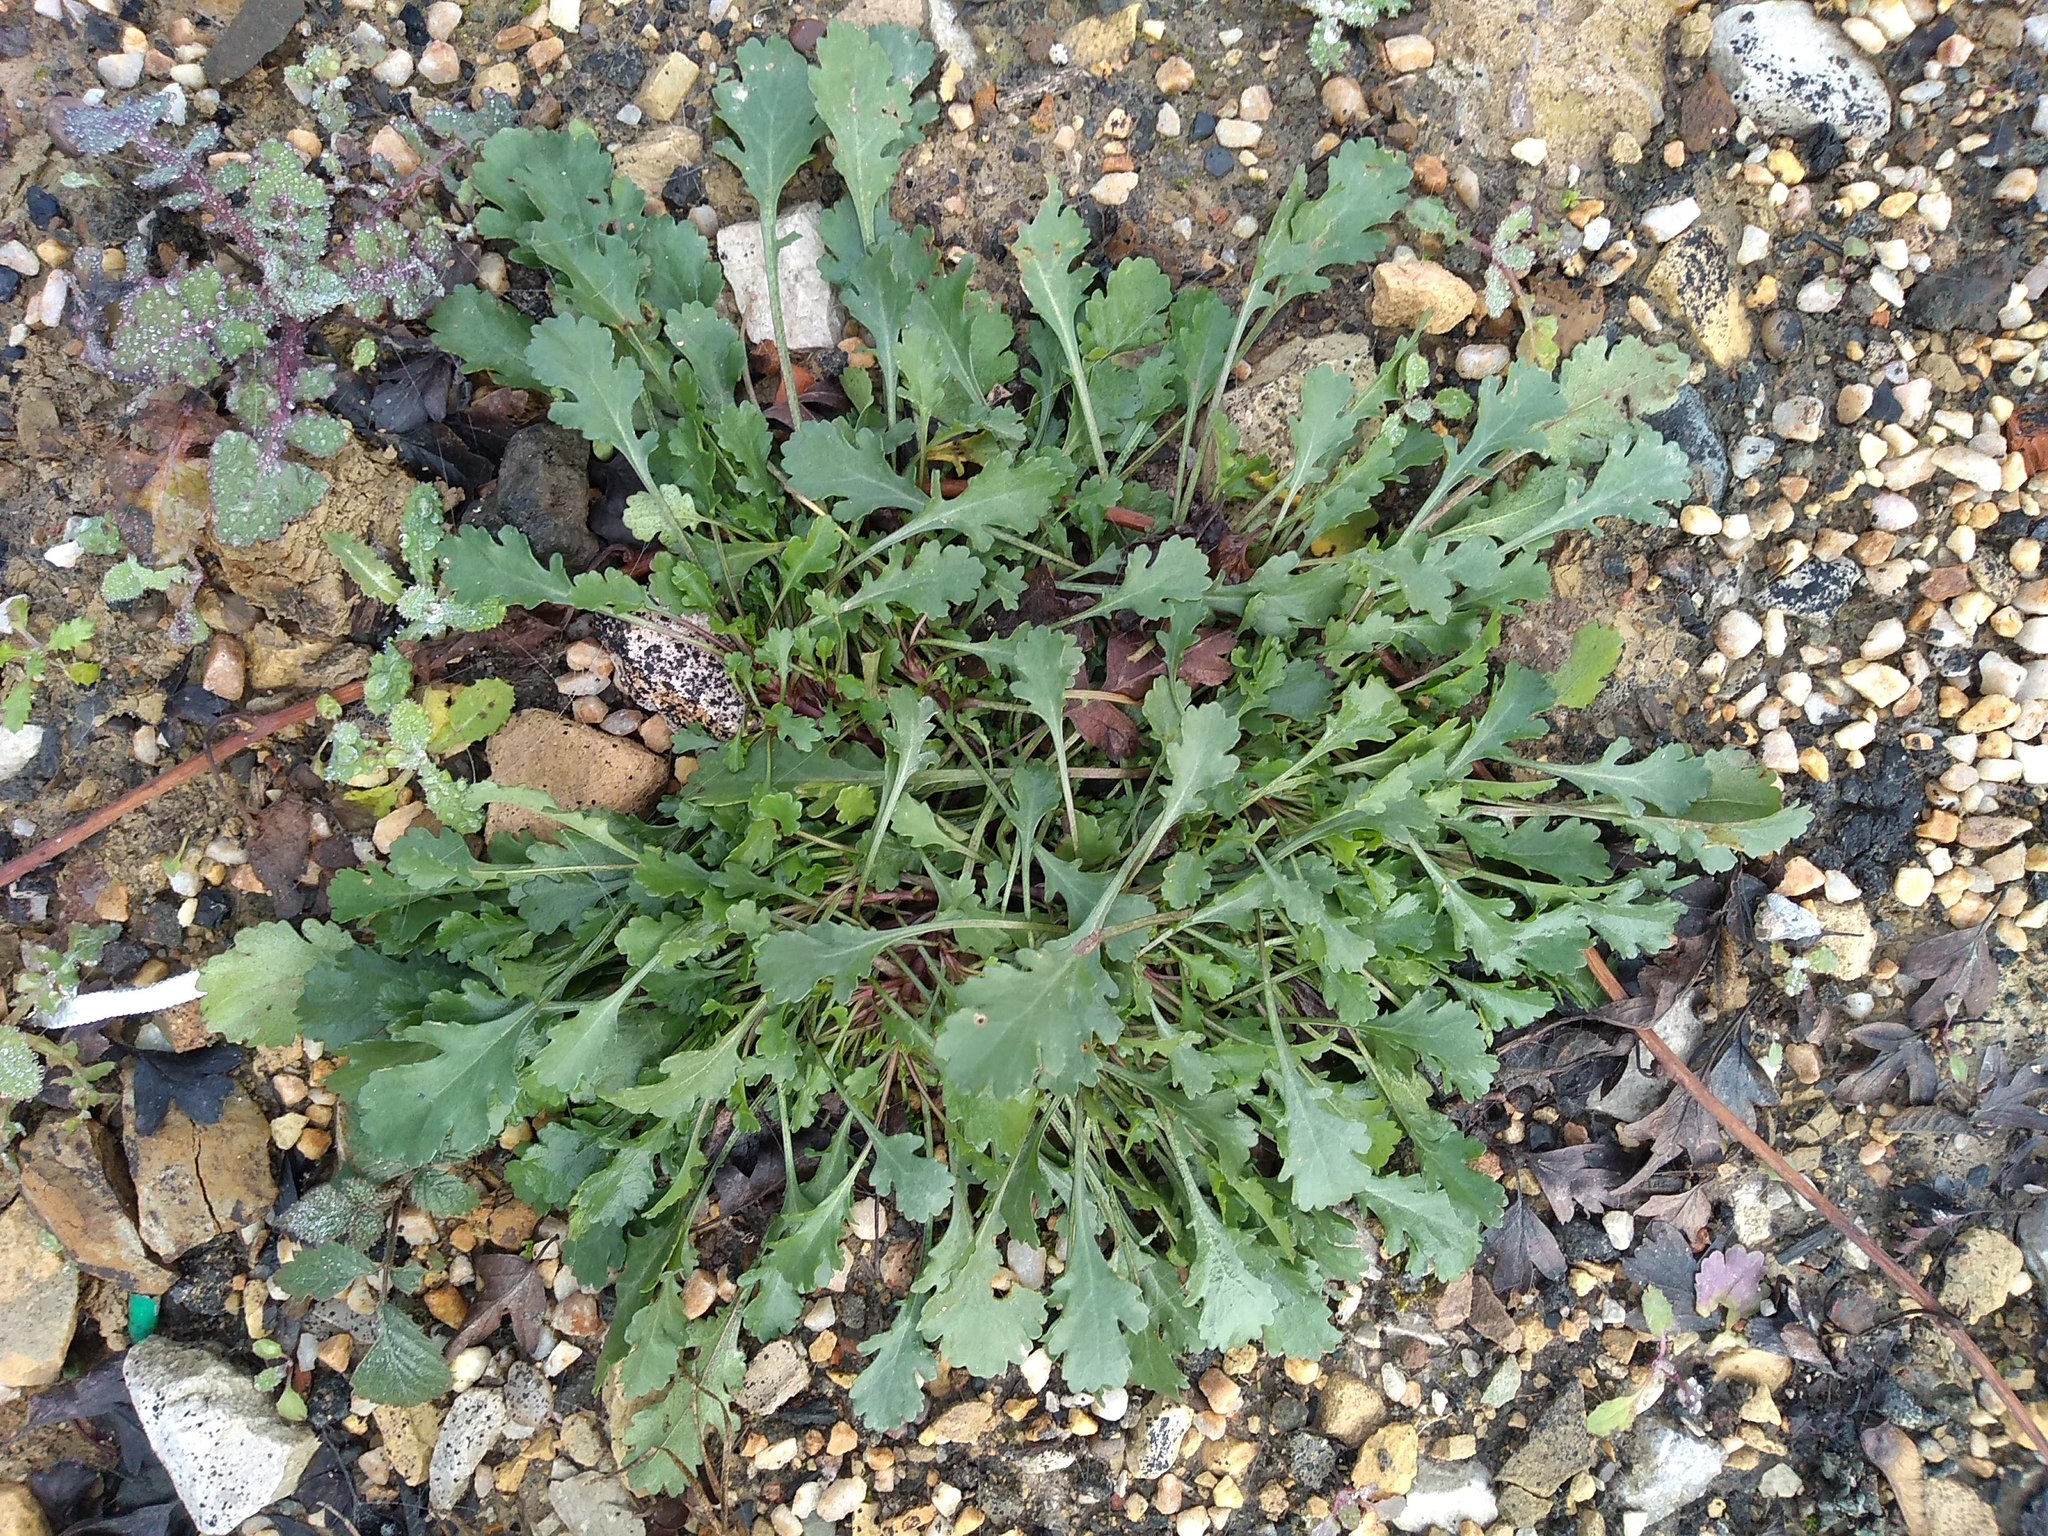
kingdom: Plantae
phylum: Tracheophyta
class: Magnoliopsida
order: Asterales
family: Asteraceae
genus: Leucanthemum
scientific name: Leucanthemum vulgare
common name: Oxeye daisy
